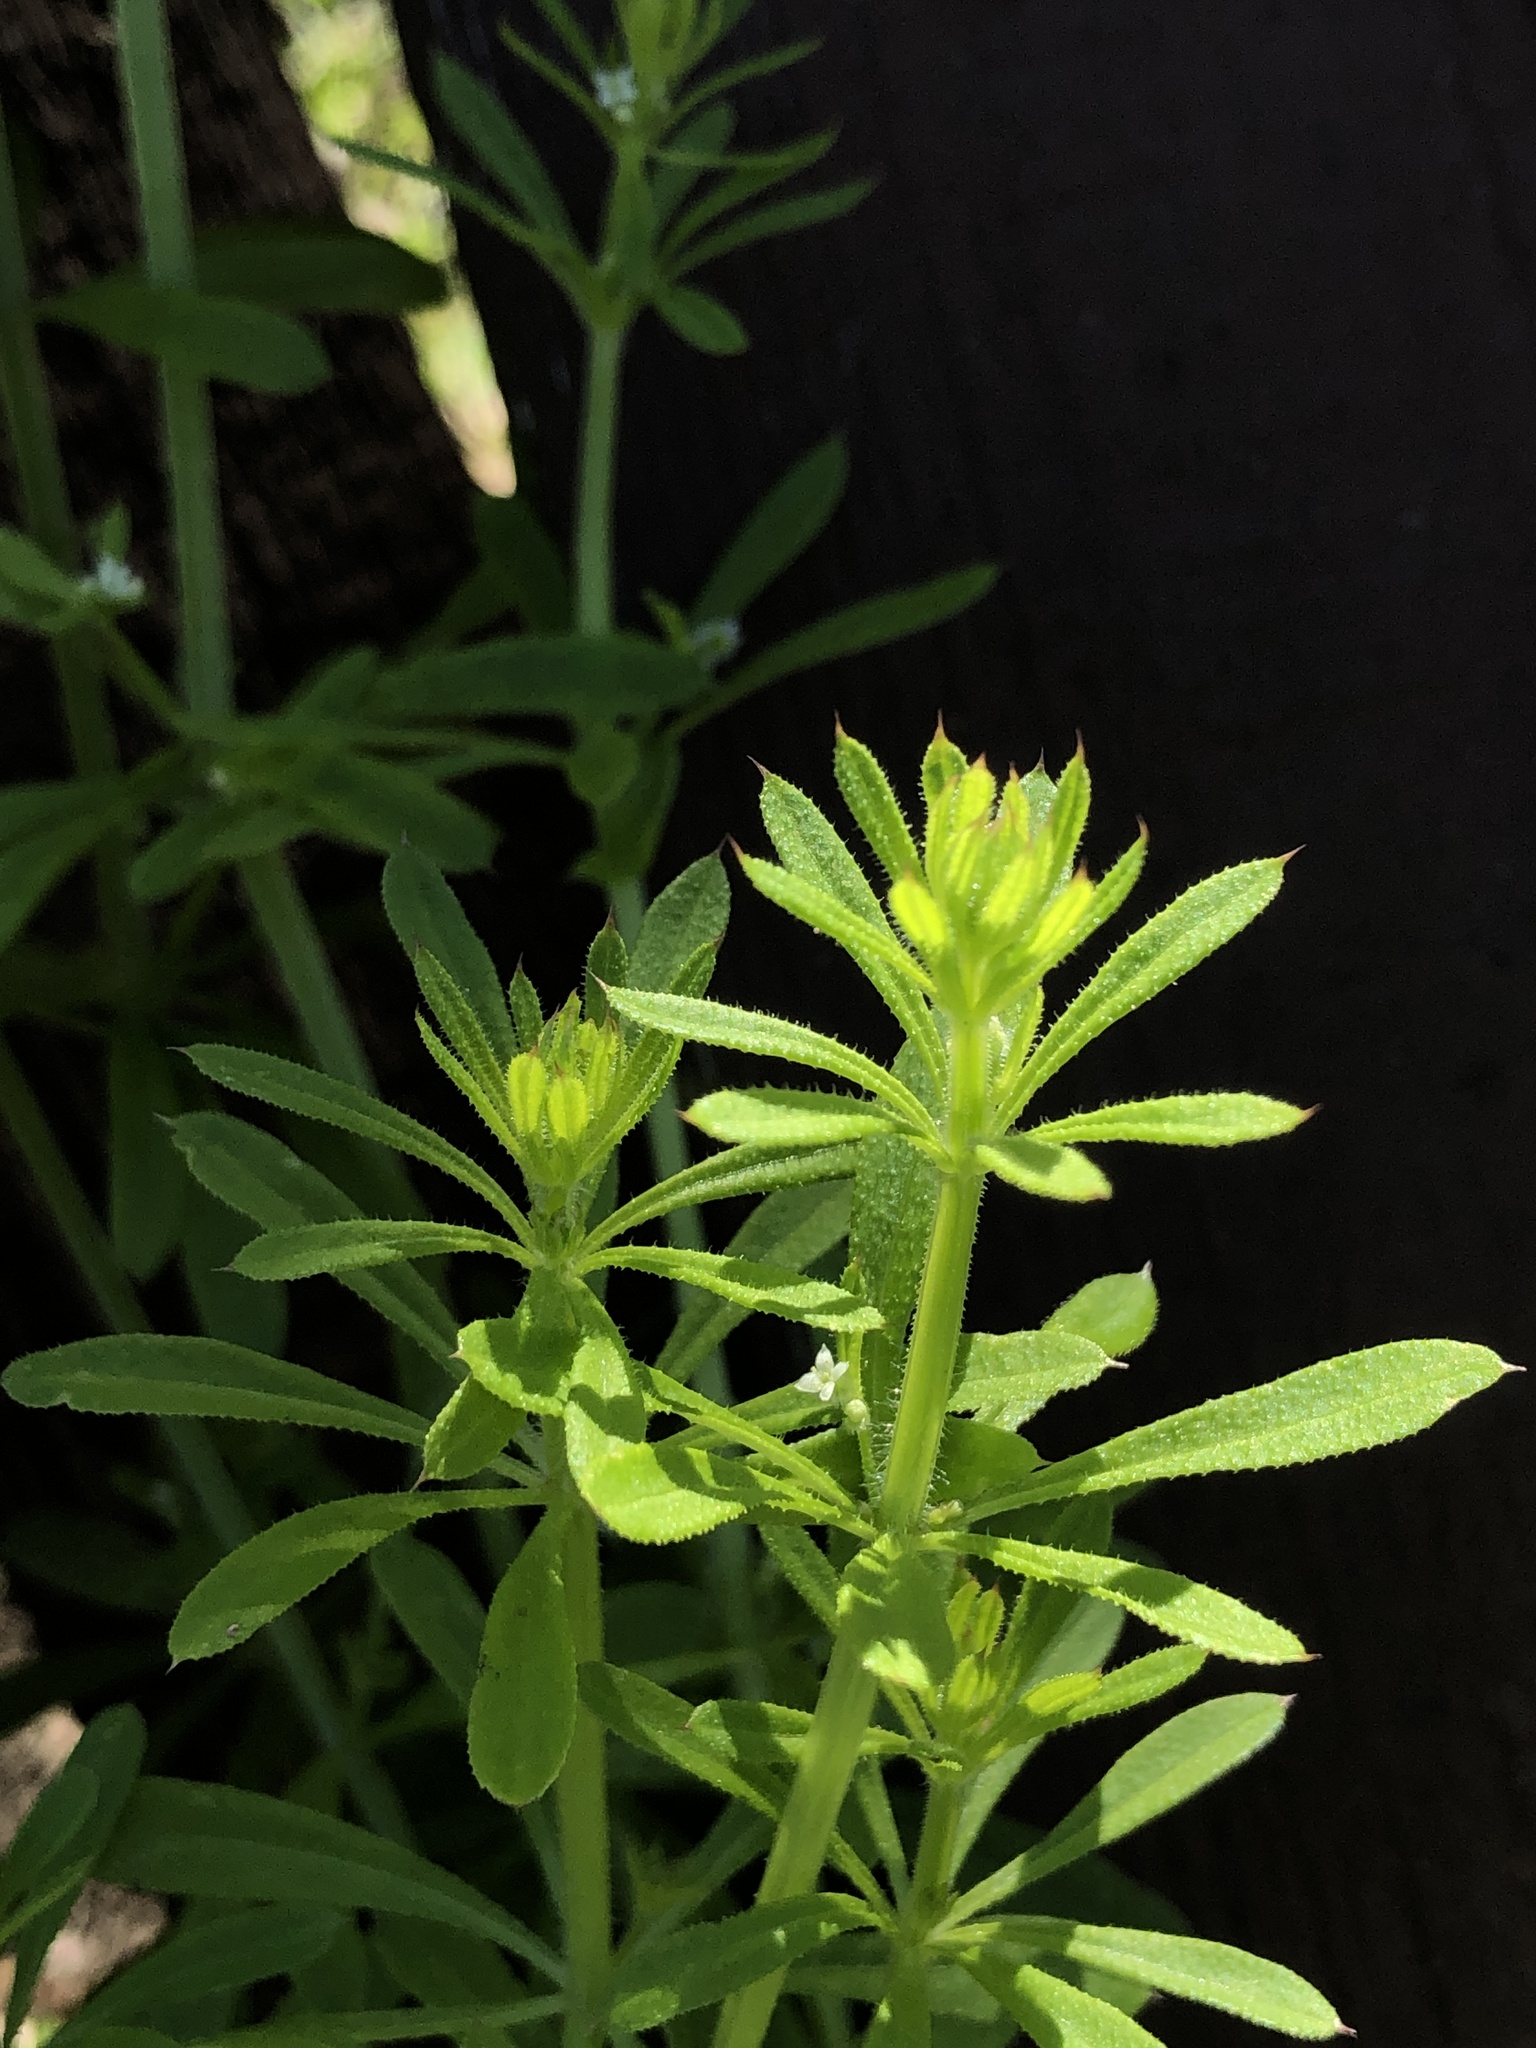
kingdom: Plantae
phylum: Tracheophyta
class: Magnoliopsida
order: Gentianales
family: Rubiaceae
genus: Galium
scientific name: Galium aparine
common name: Cleavers
